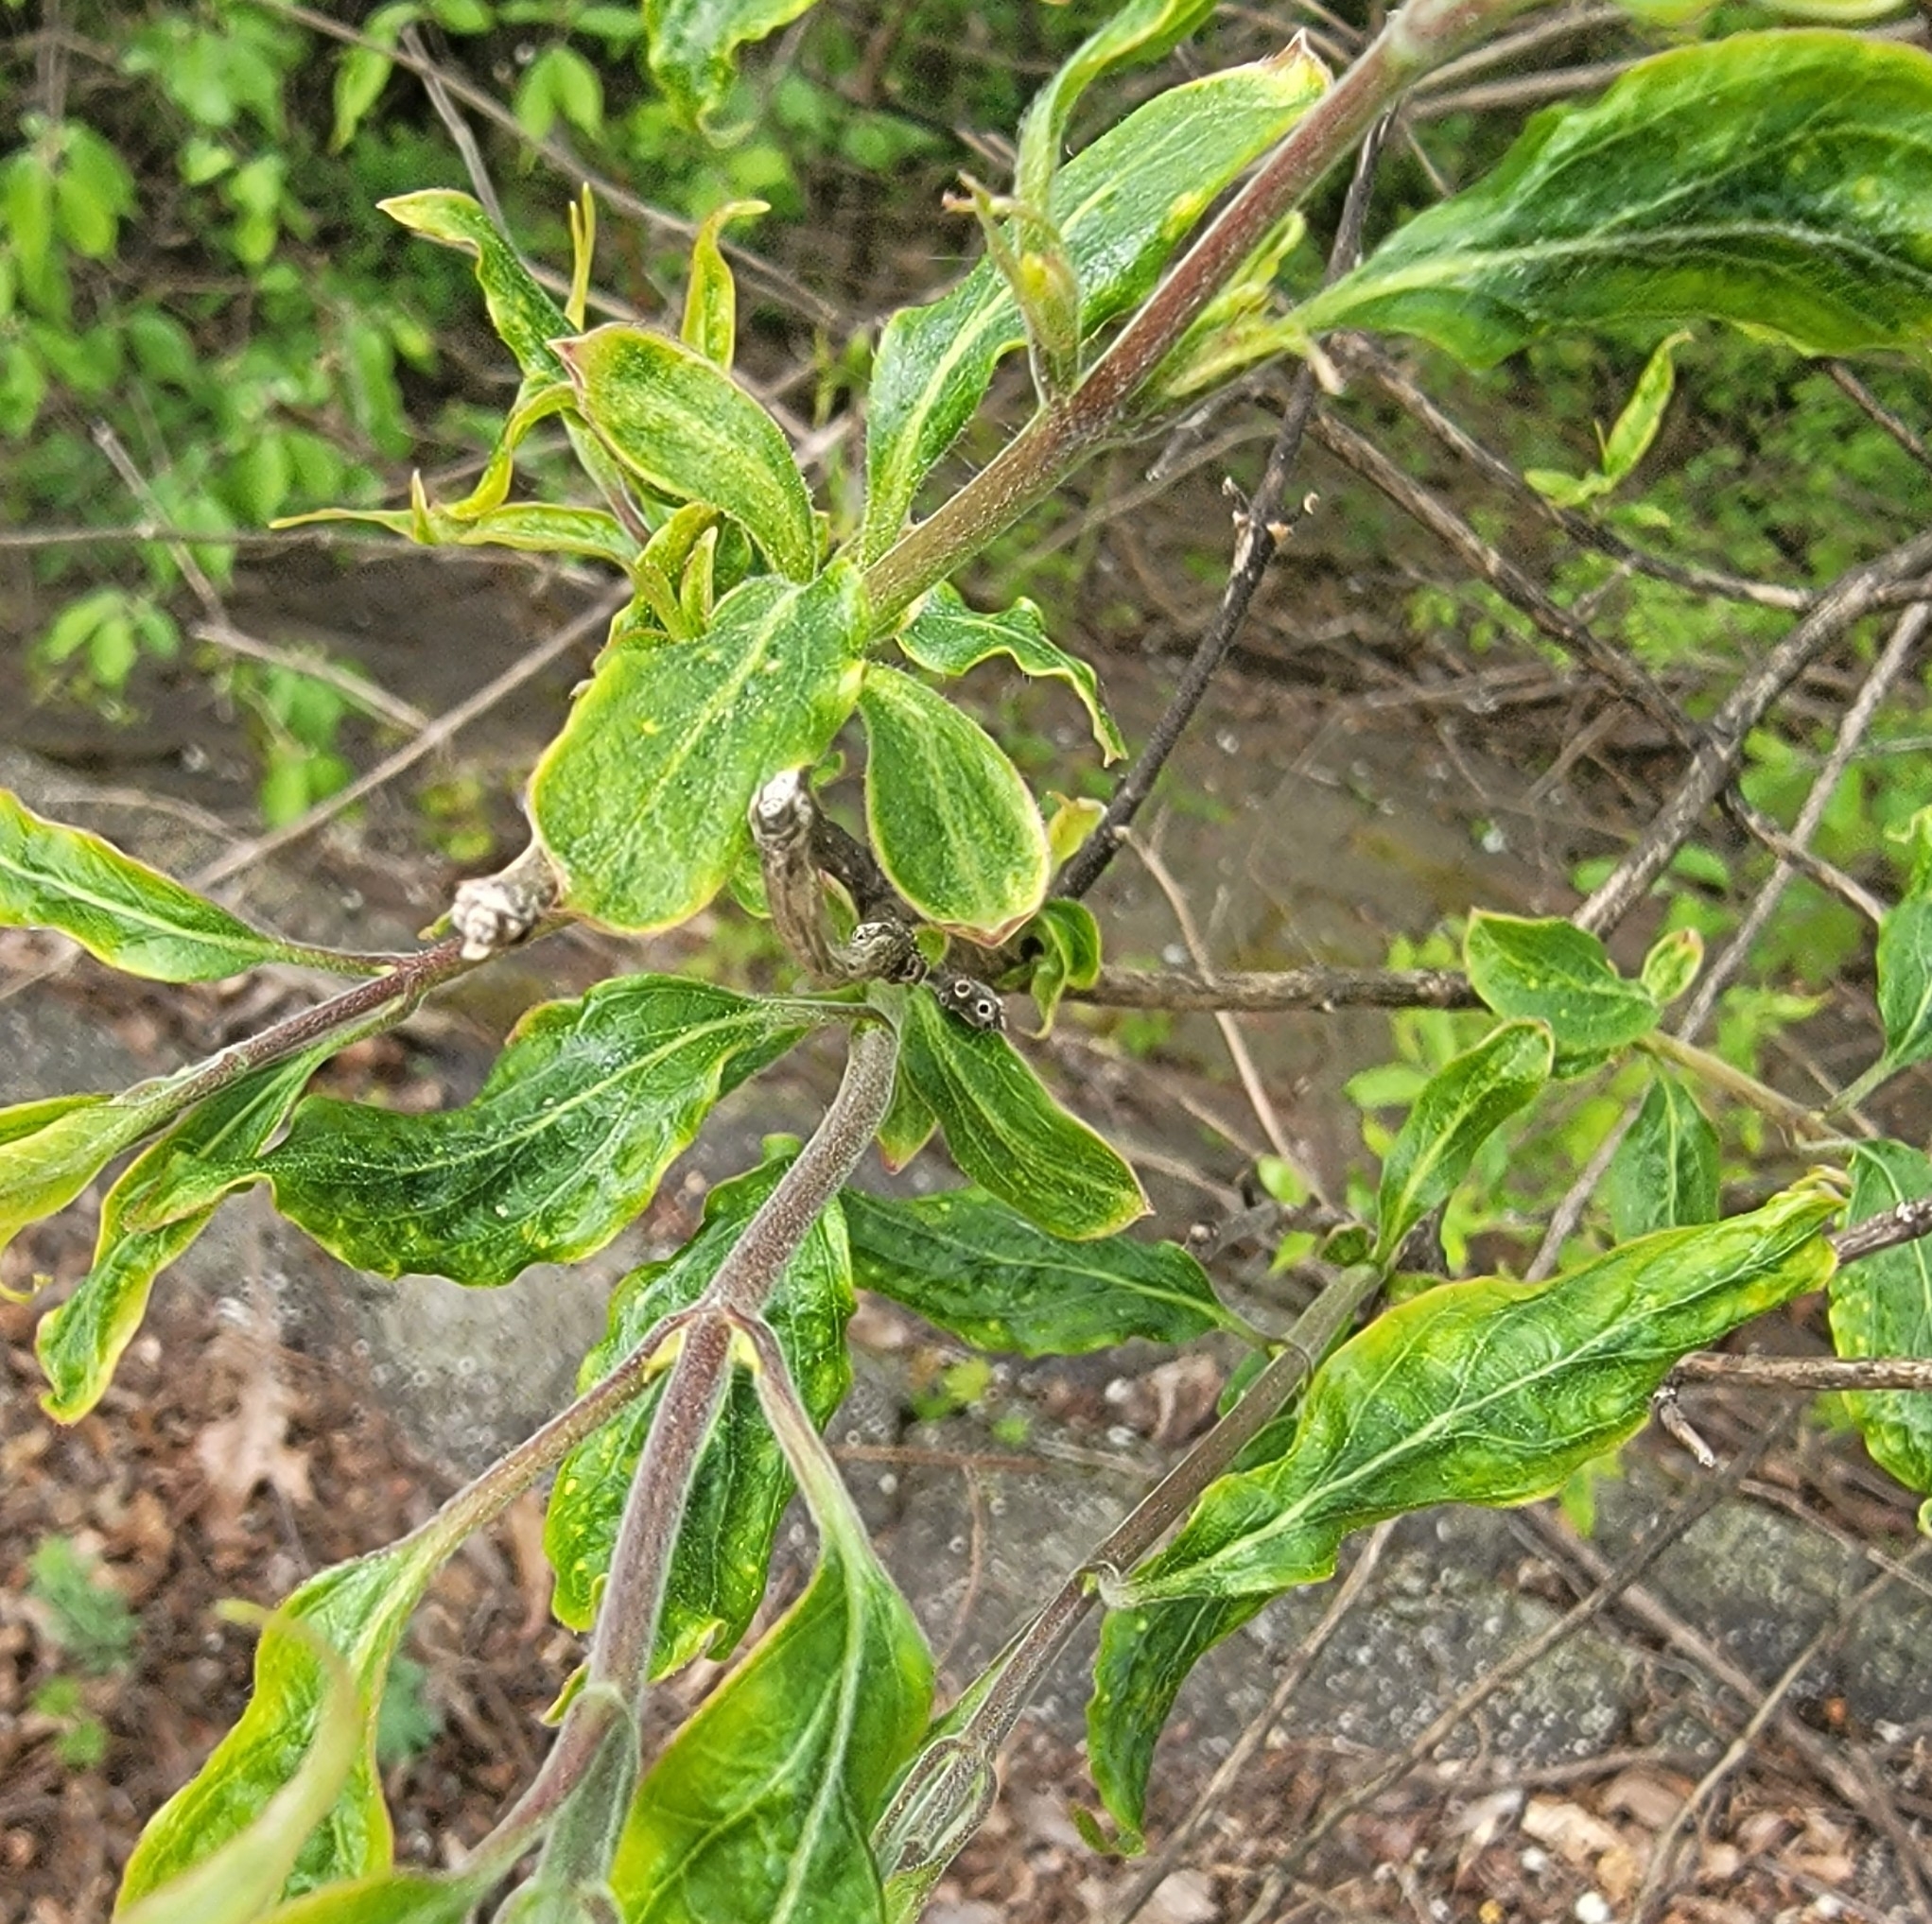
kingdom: Plantae
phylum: Tracheophyta
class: Magnoliopsida
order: Dipsacales
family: Caprifoliaceae
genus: Lonicera
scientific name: Lonicera maackii
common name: Amur honeysuckle
